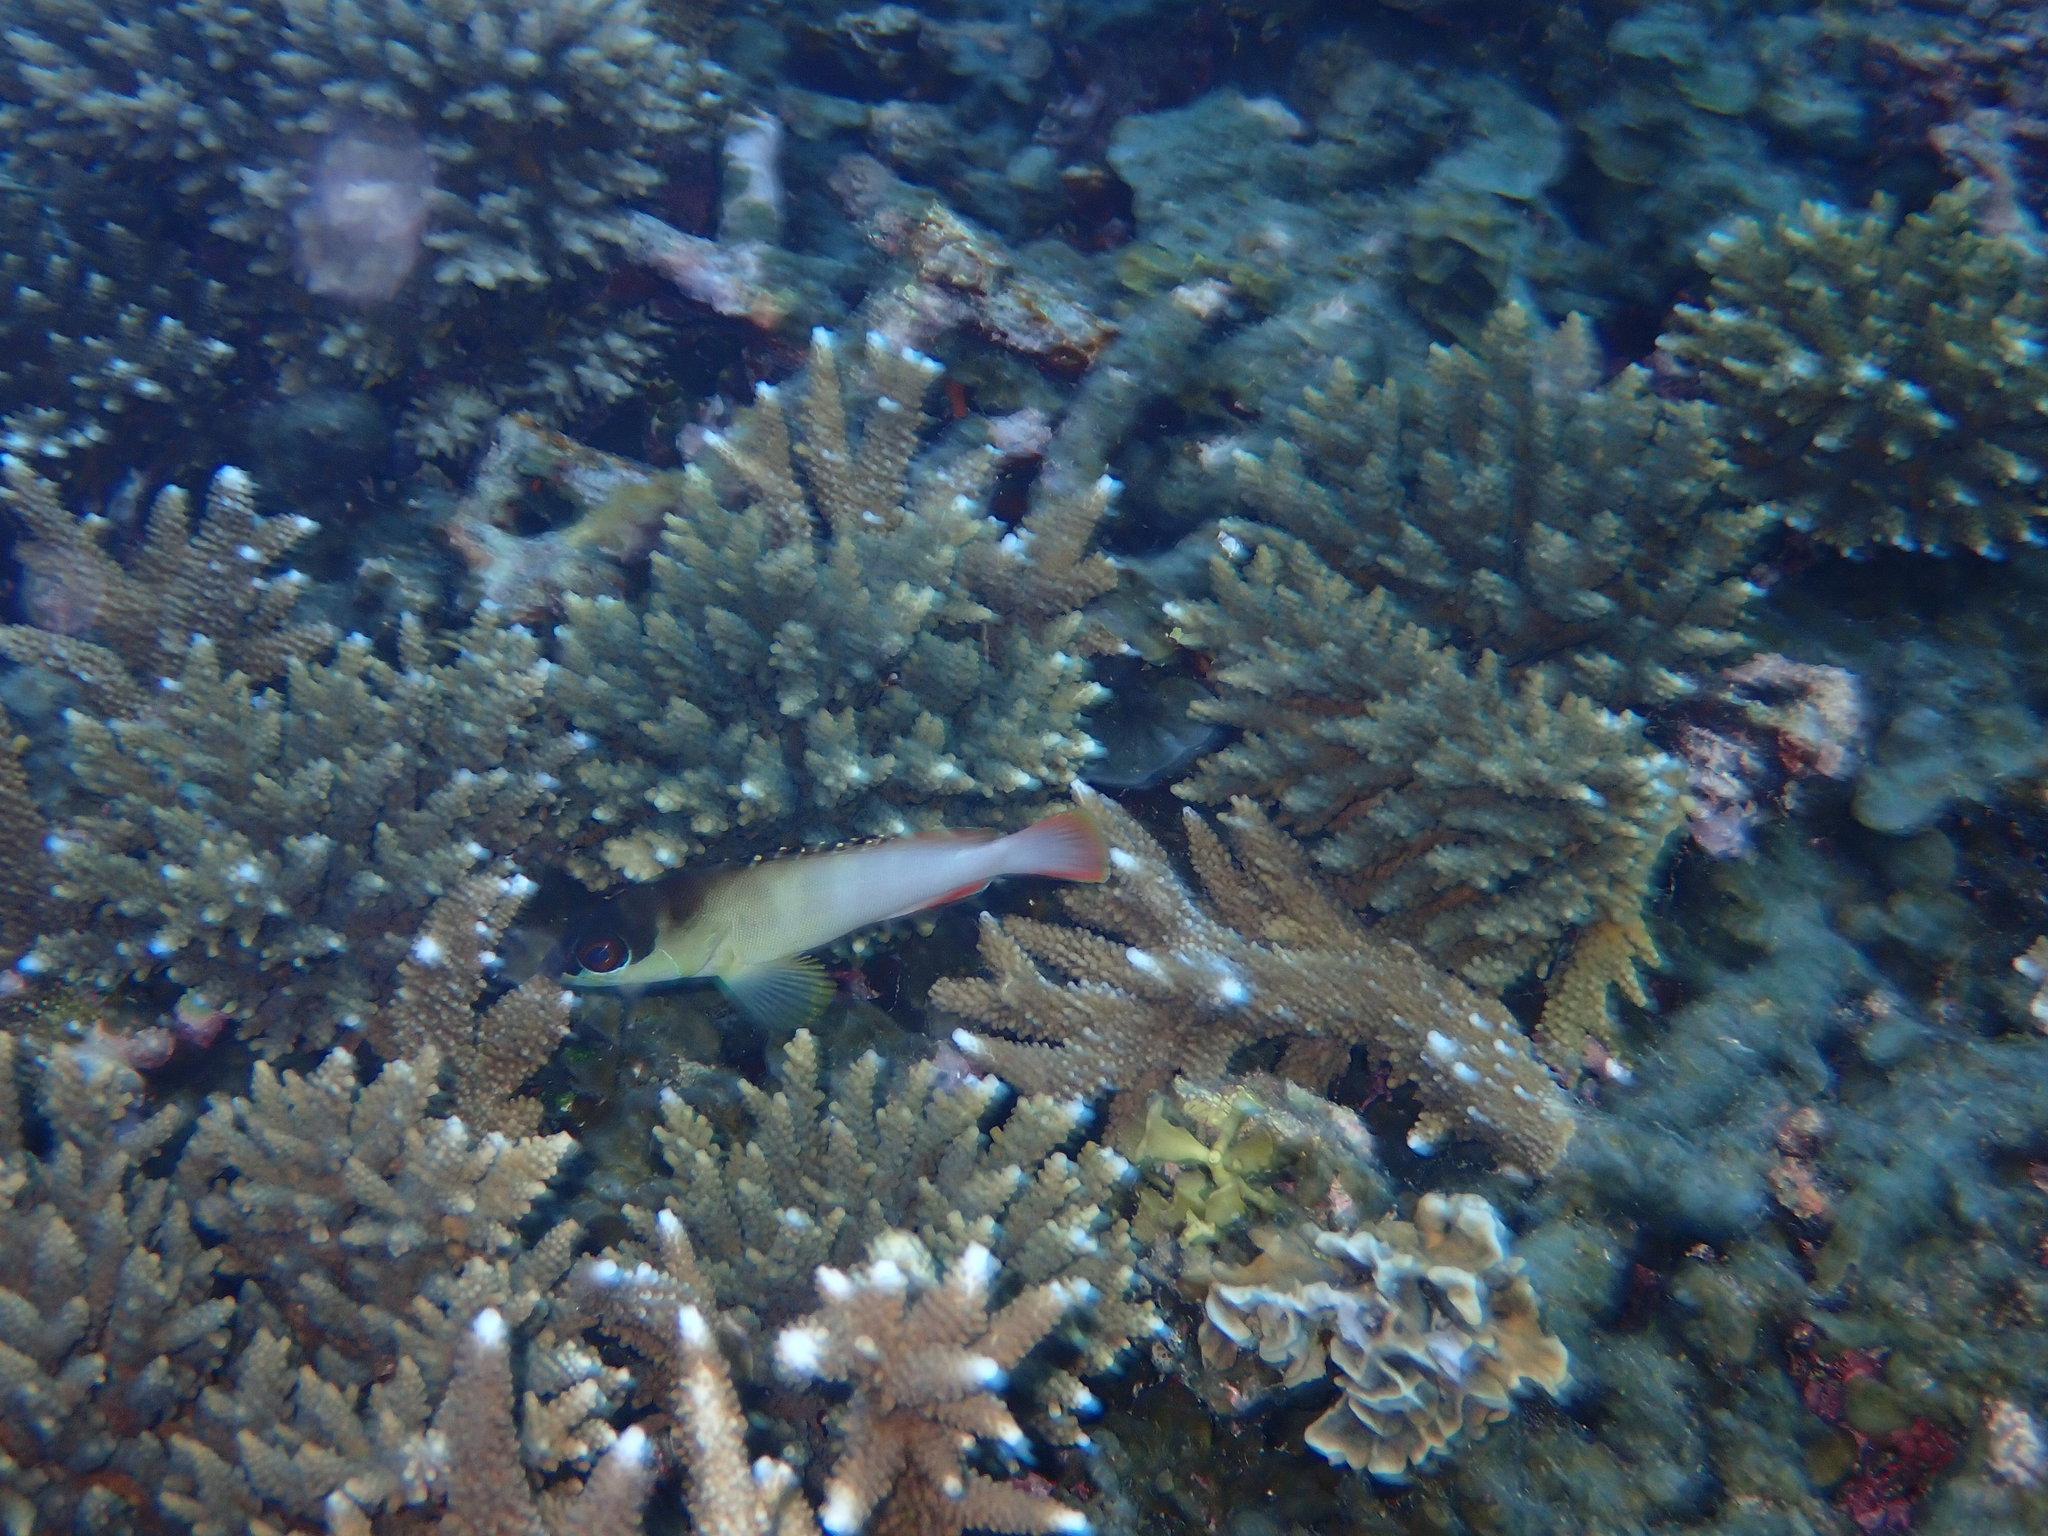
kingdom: Animalia
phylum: Chordata
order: Perciformes
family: Serranidae
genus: Epinephelus
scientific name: Epinephelus fasciatus
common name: Blacktip grouper
